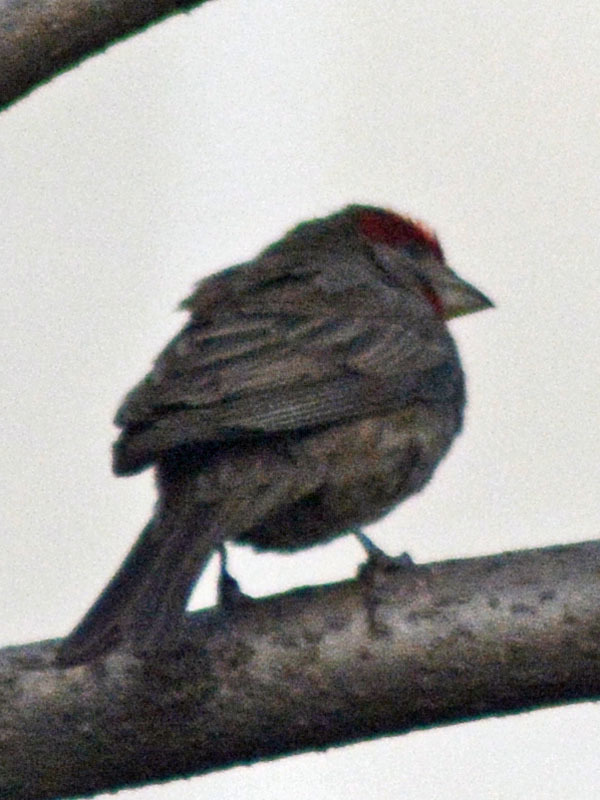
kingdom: Animalia
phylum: Chordata
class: Aves
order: Passeriformes
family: Fringillidae
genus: Haemorhous
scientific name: Haemorhous mexicanus
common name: House finch
